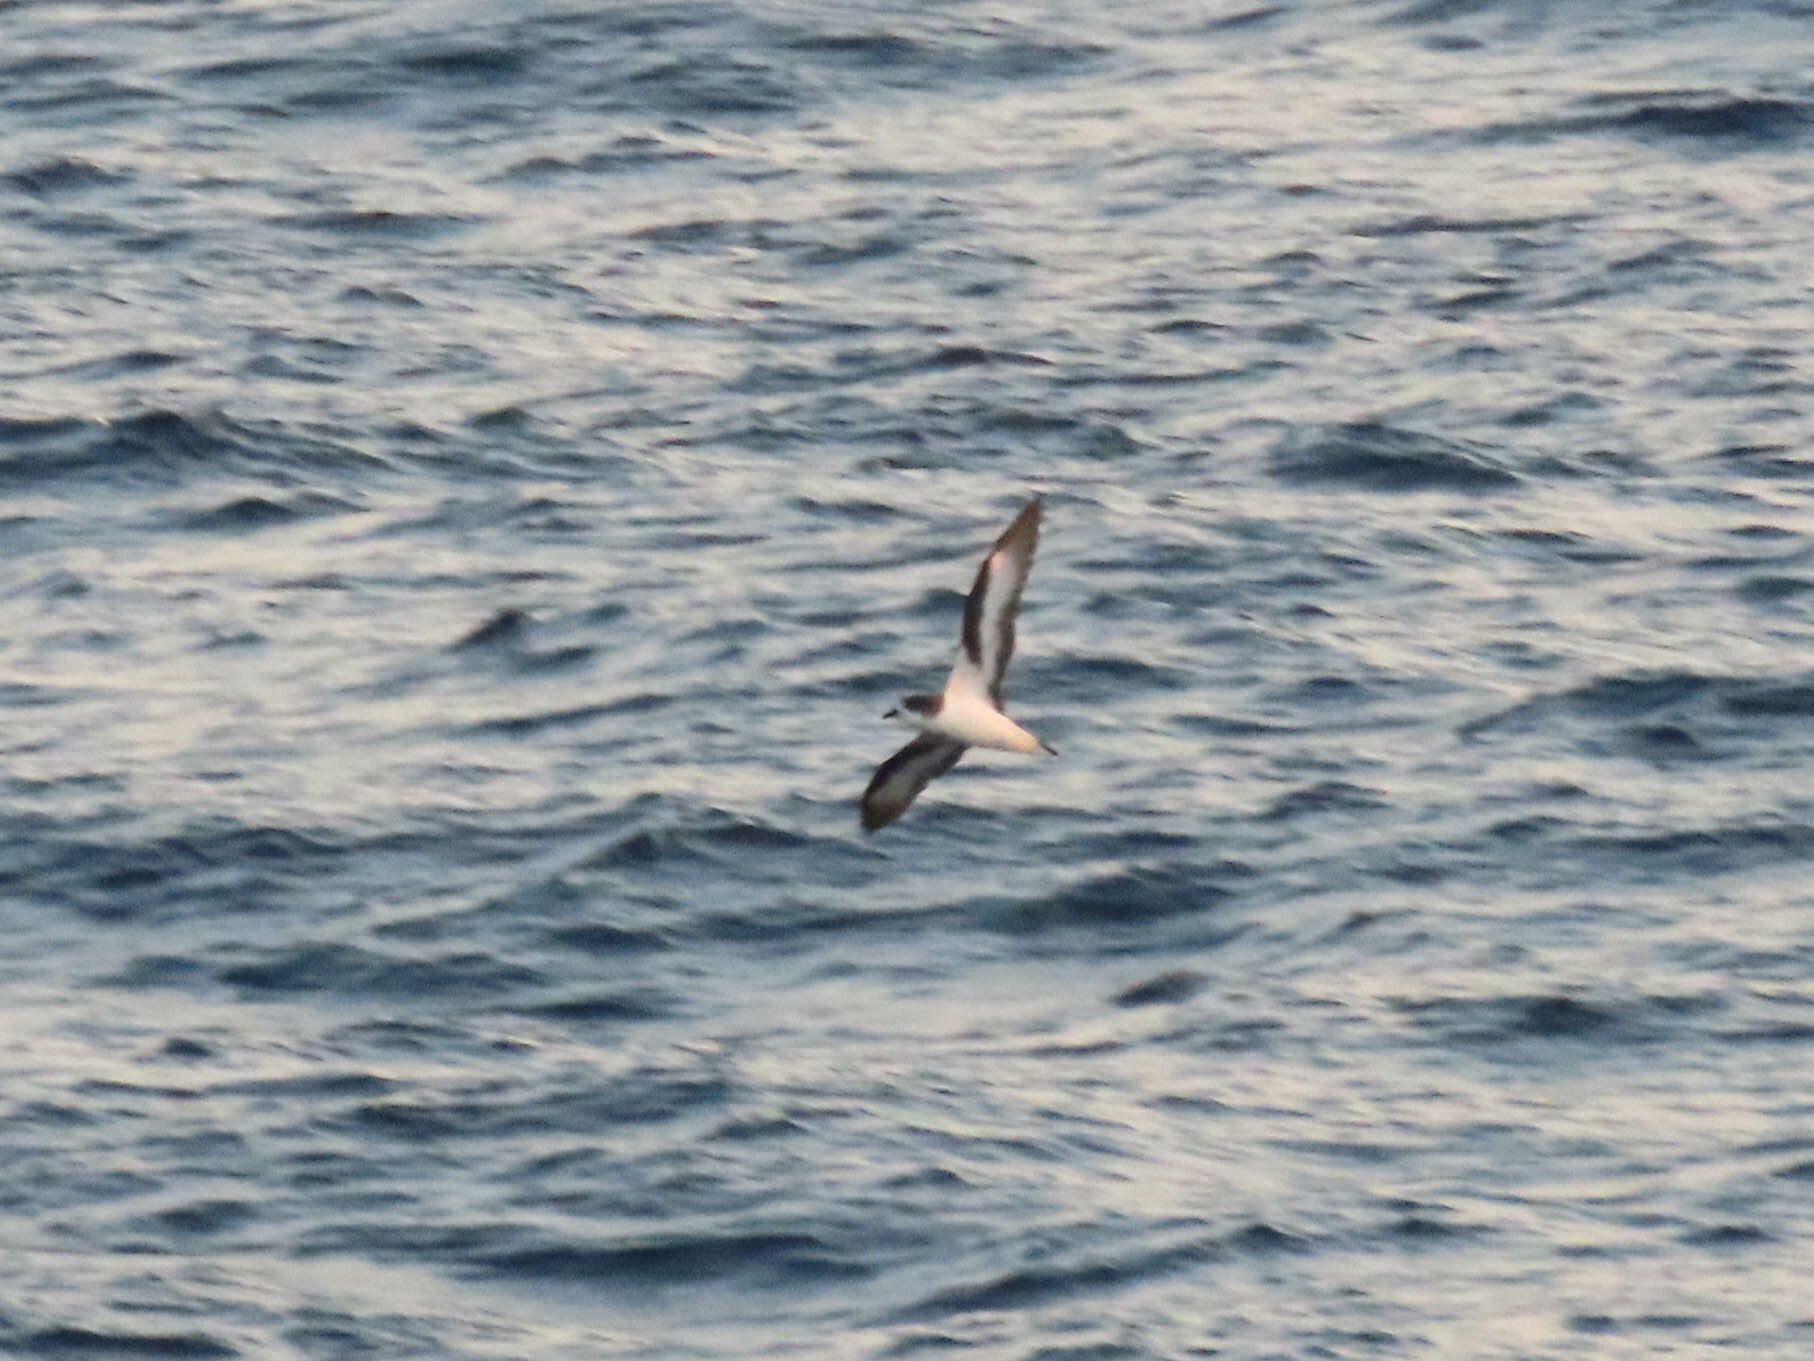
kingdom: Animalia
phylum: Chordata
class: Aves
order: Procellariiformes
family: Procellariidae
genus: Pterodroma
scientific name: Pterodroma cahow
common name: Bermuda petrel
